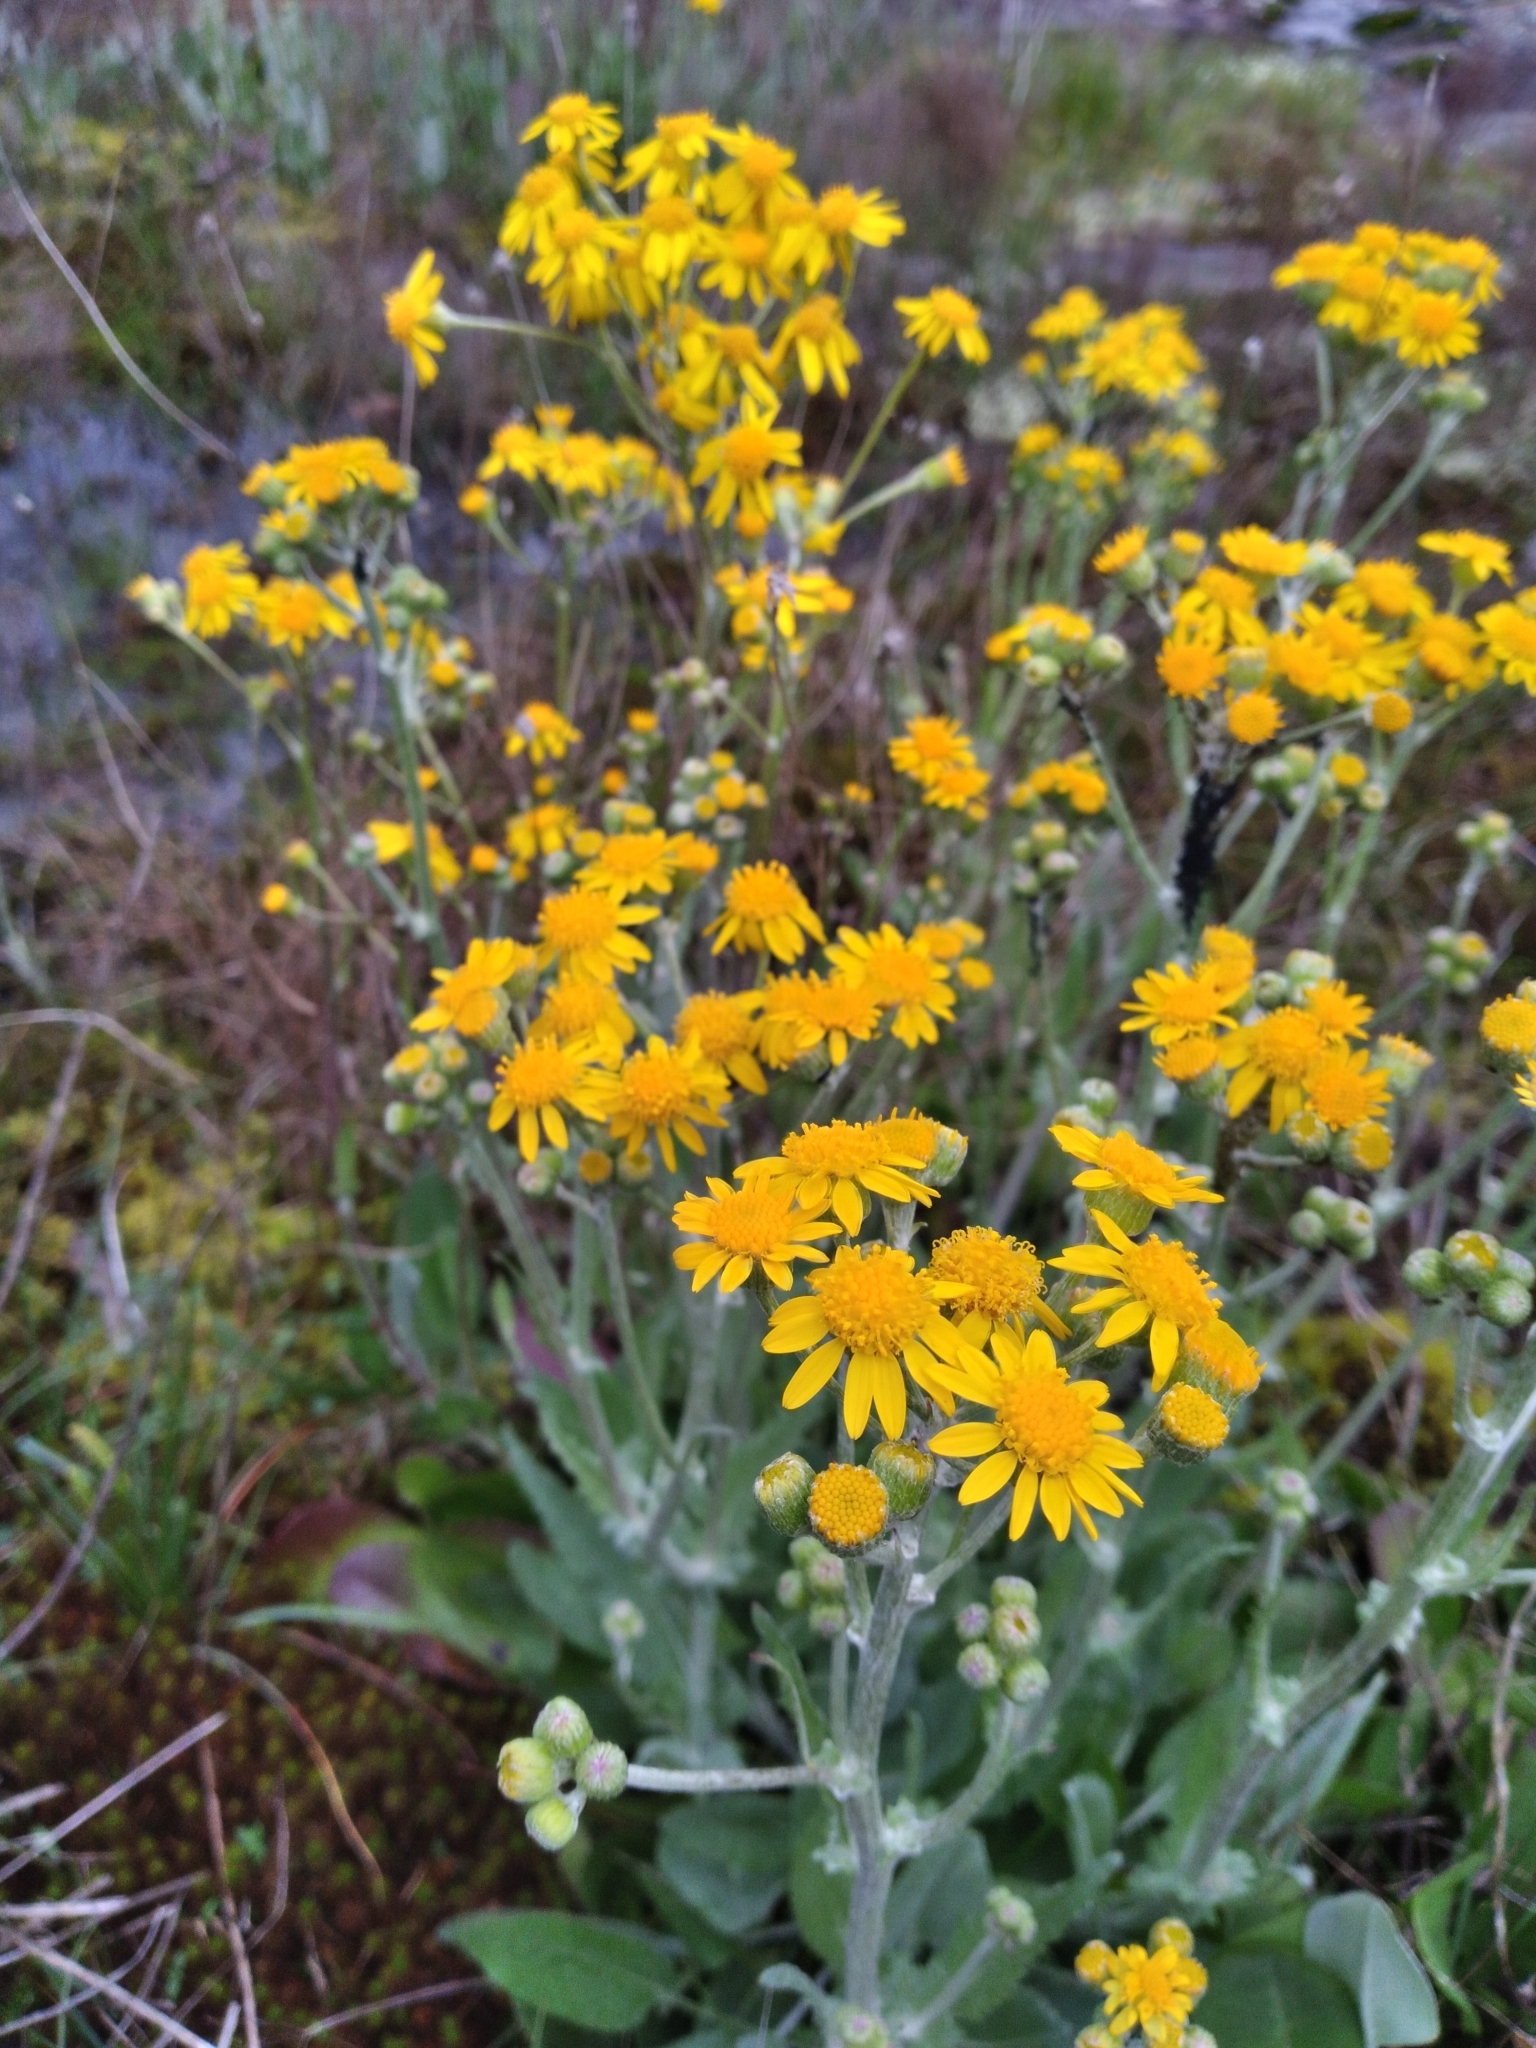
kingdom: Plantae
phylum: Tracheophyta
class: Magnoliopsida
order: Asterales
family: Asteraceae
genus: Packera
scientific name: Packera dubia
